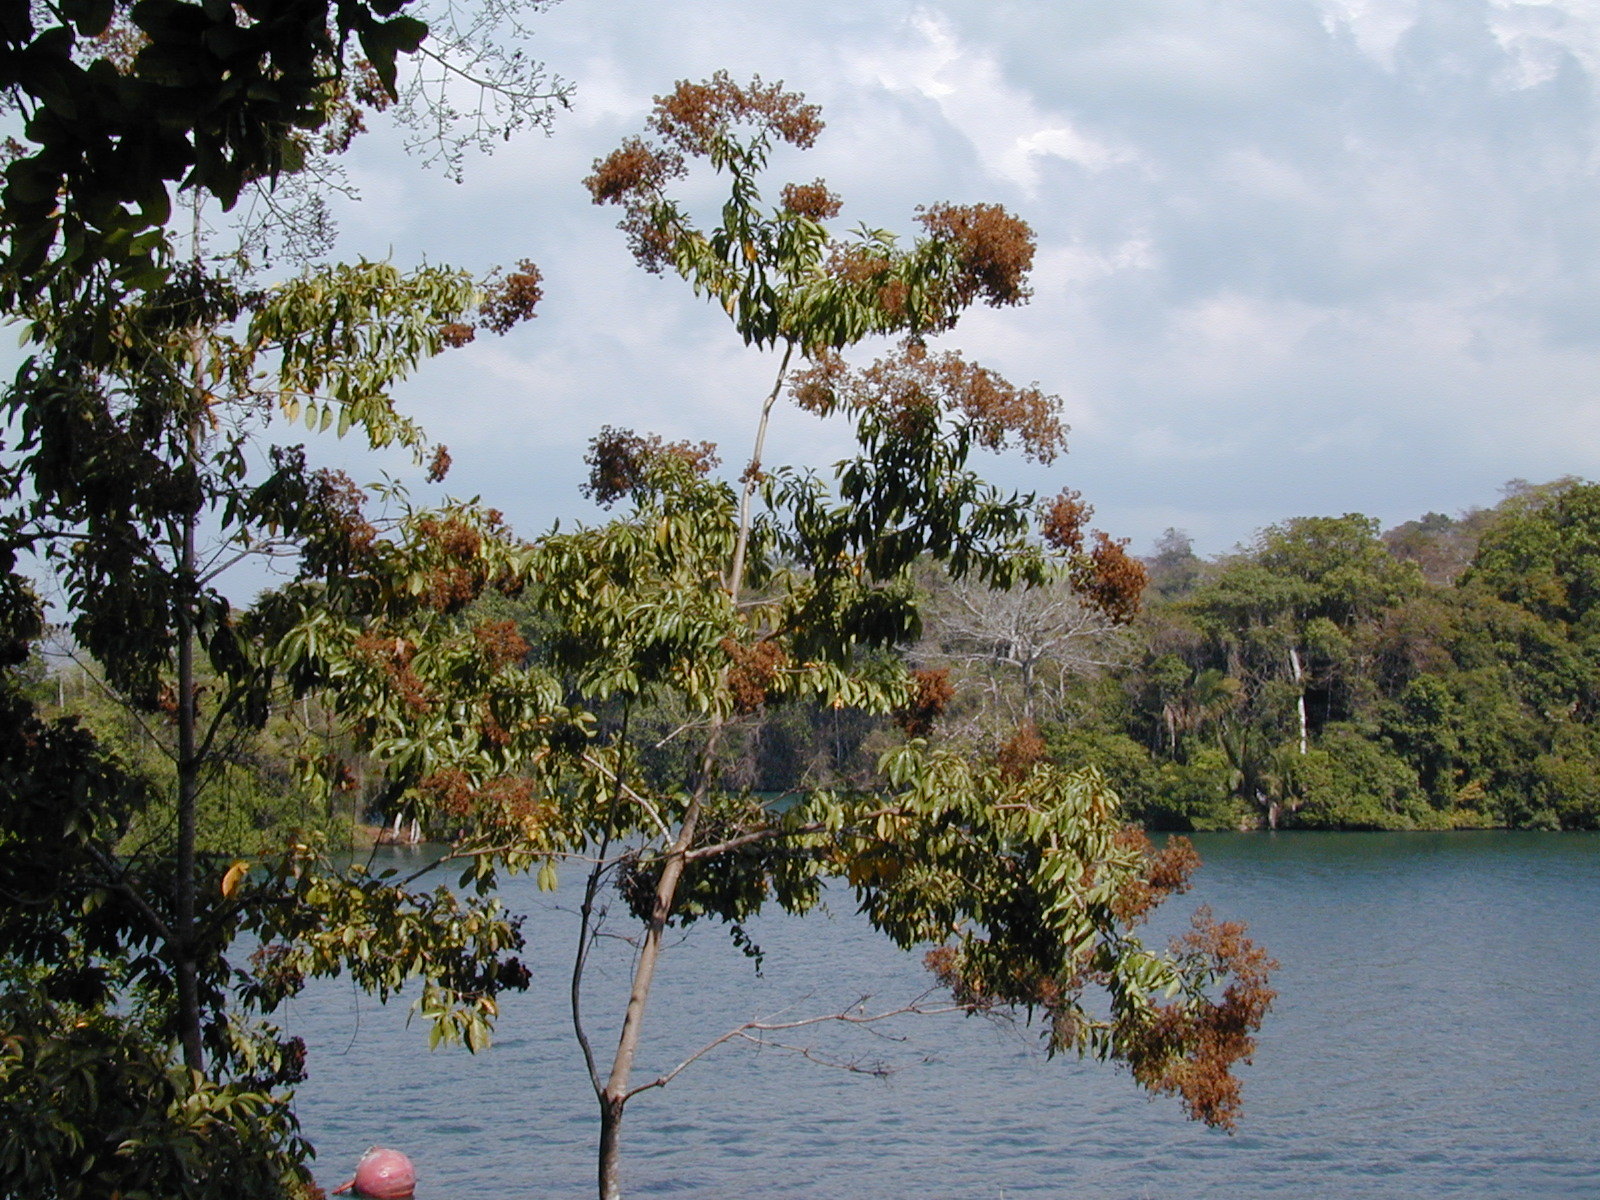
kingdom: Plantae
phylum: Tracheophyta
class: Magnoliopsida
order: Boraginales
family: Cordiaceae
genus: Cordia
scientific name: Cordia alliodora
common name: Spanish elm
